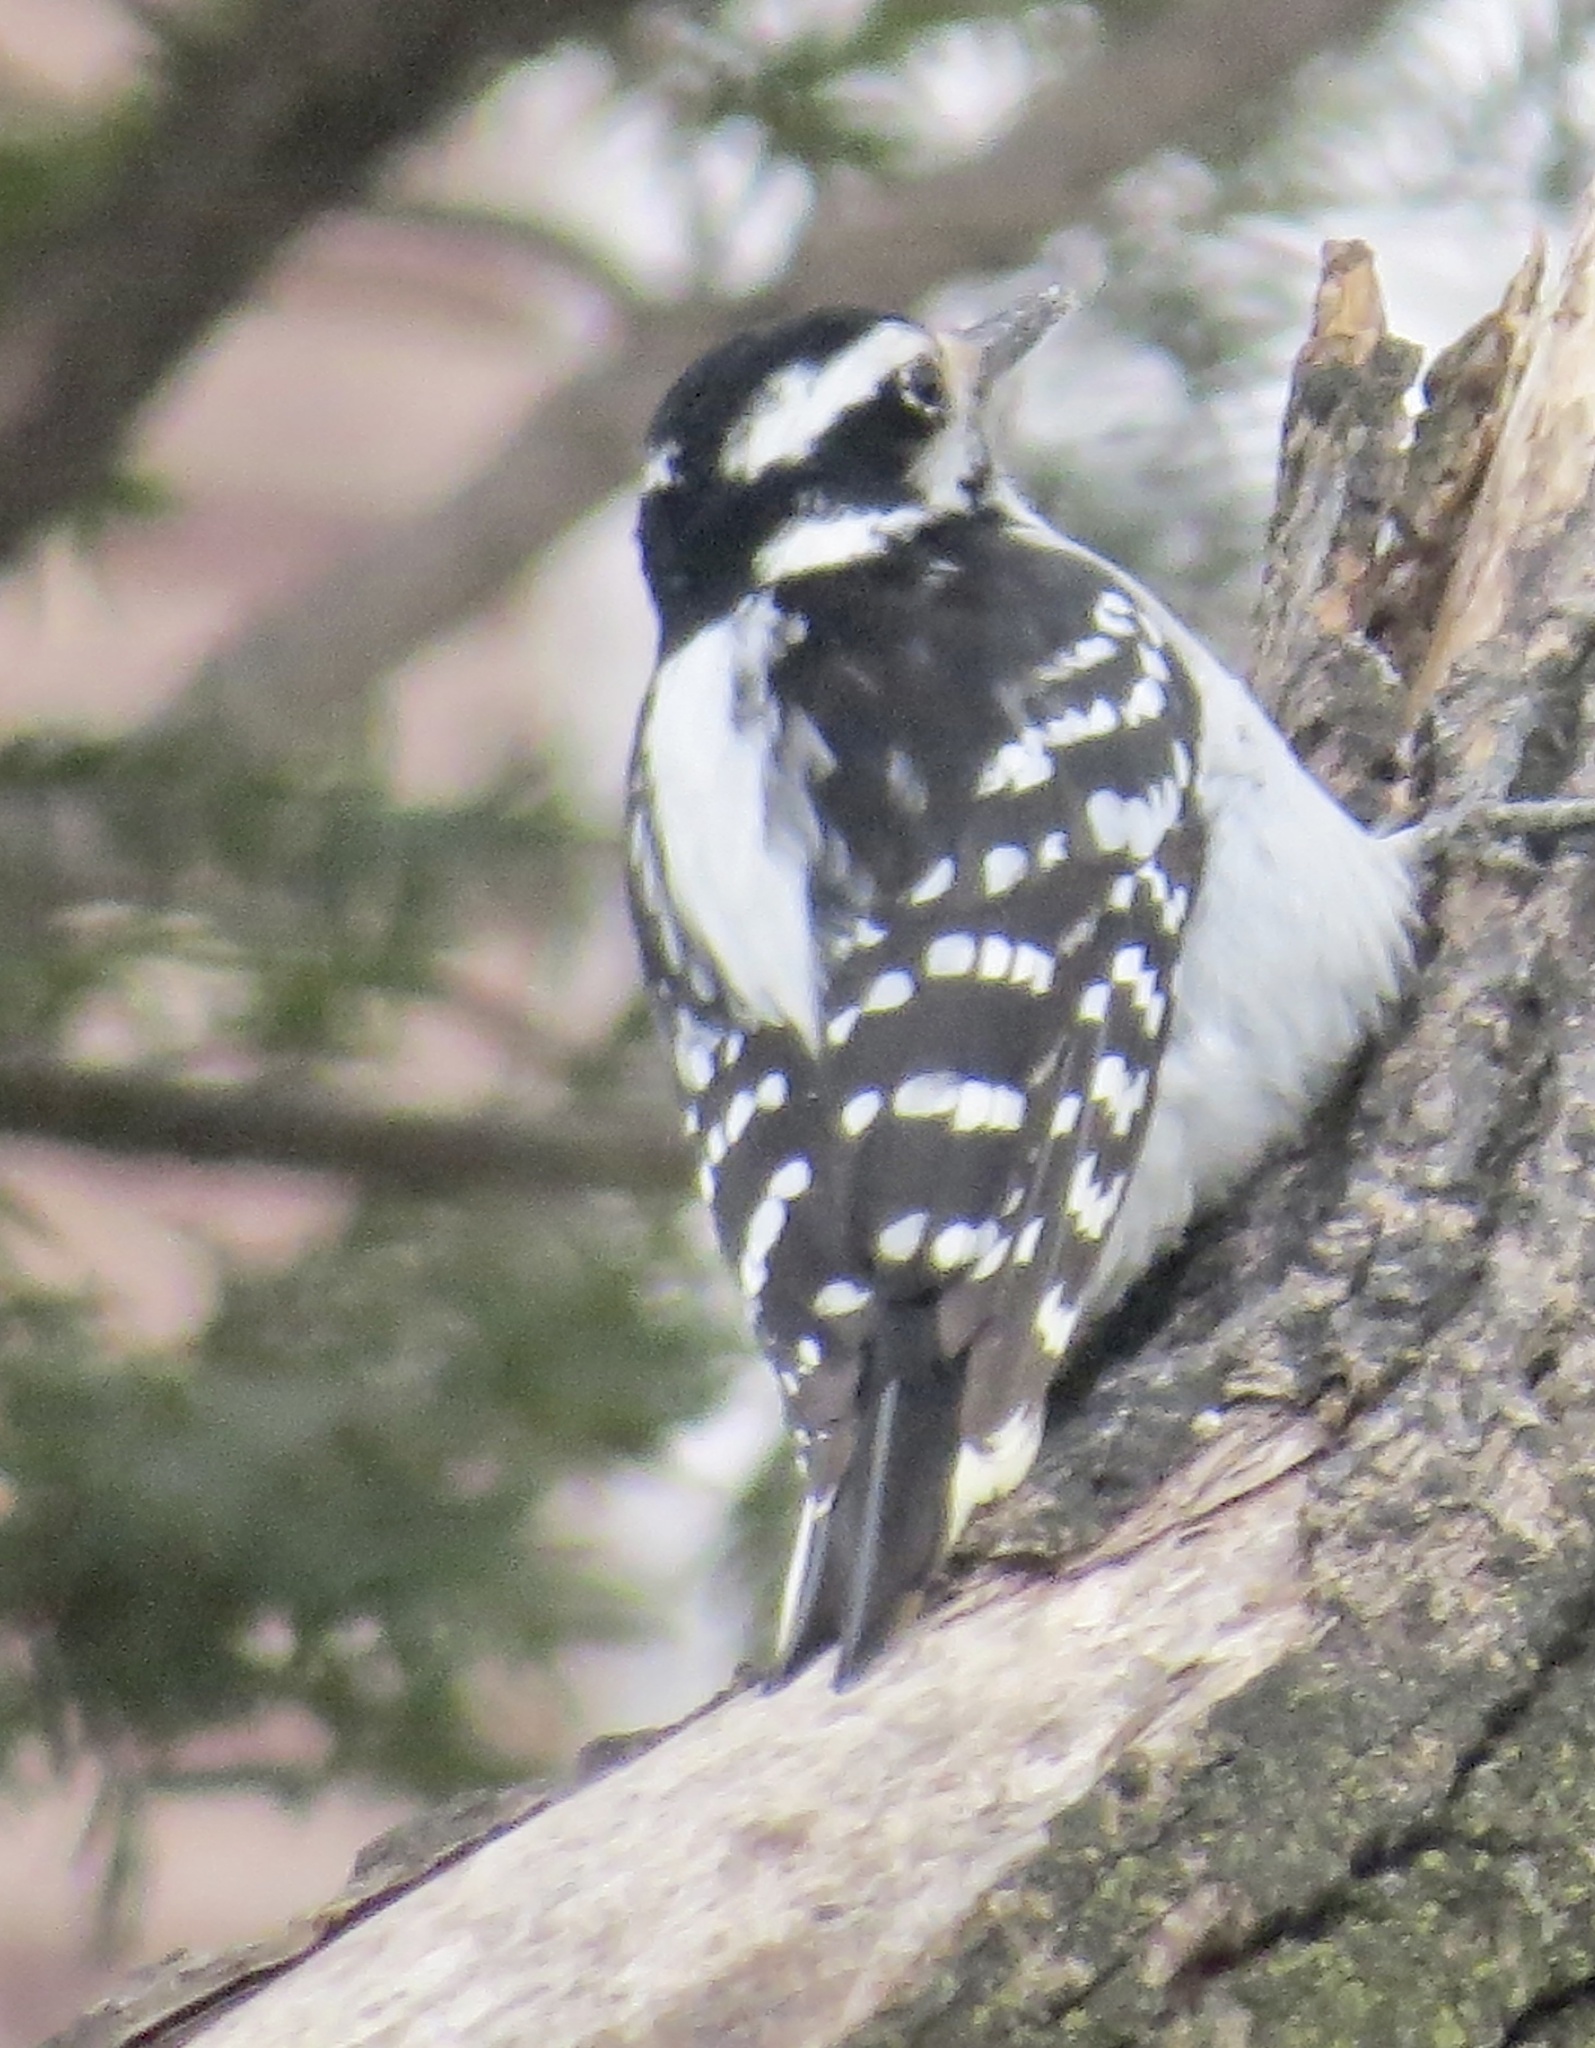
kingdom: Animalia
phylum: Chordata
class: Aves
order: Piciformes
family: Picidae
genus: Leuconotopicus
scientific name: Leuconotopicus villosus
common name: Hairy woodpecker
